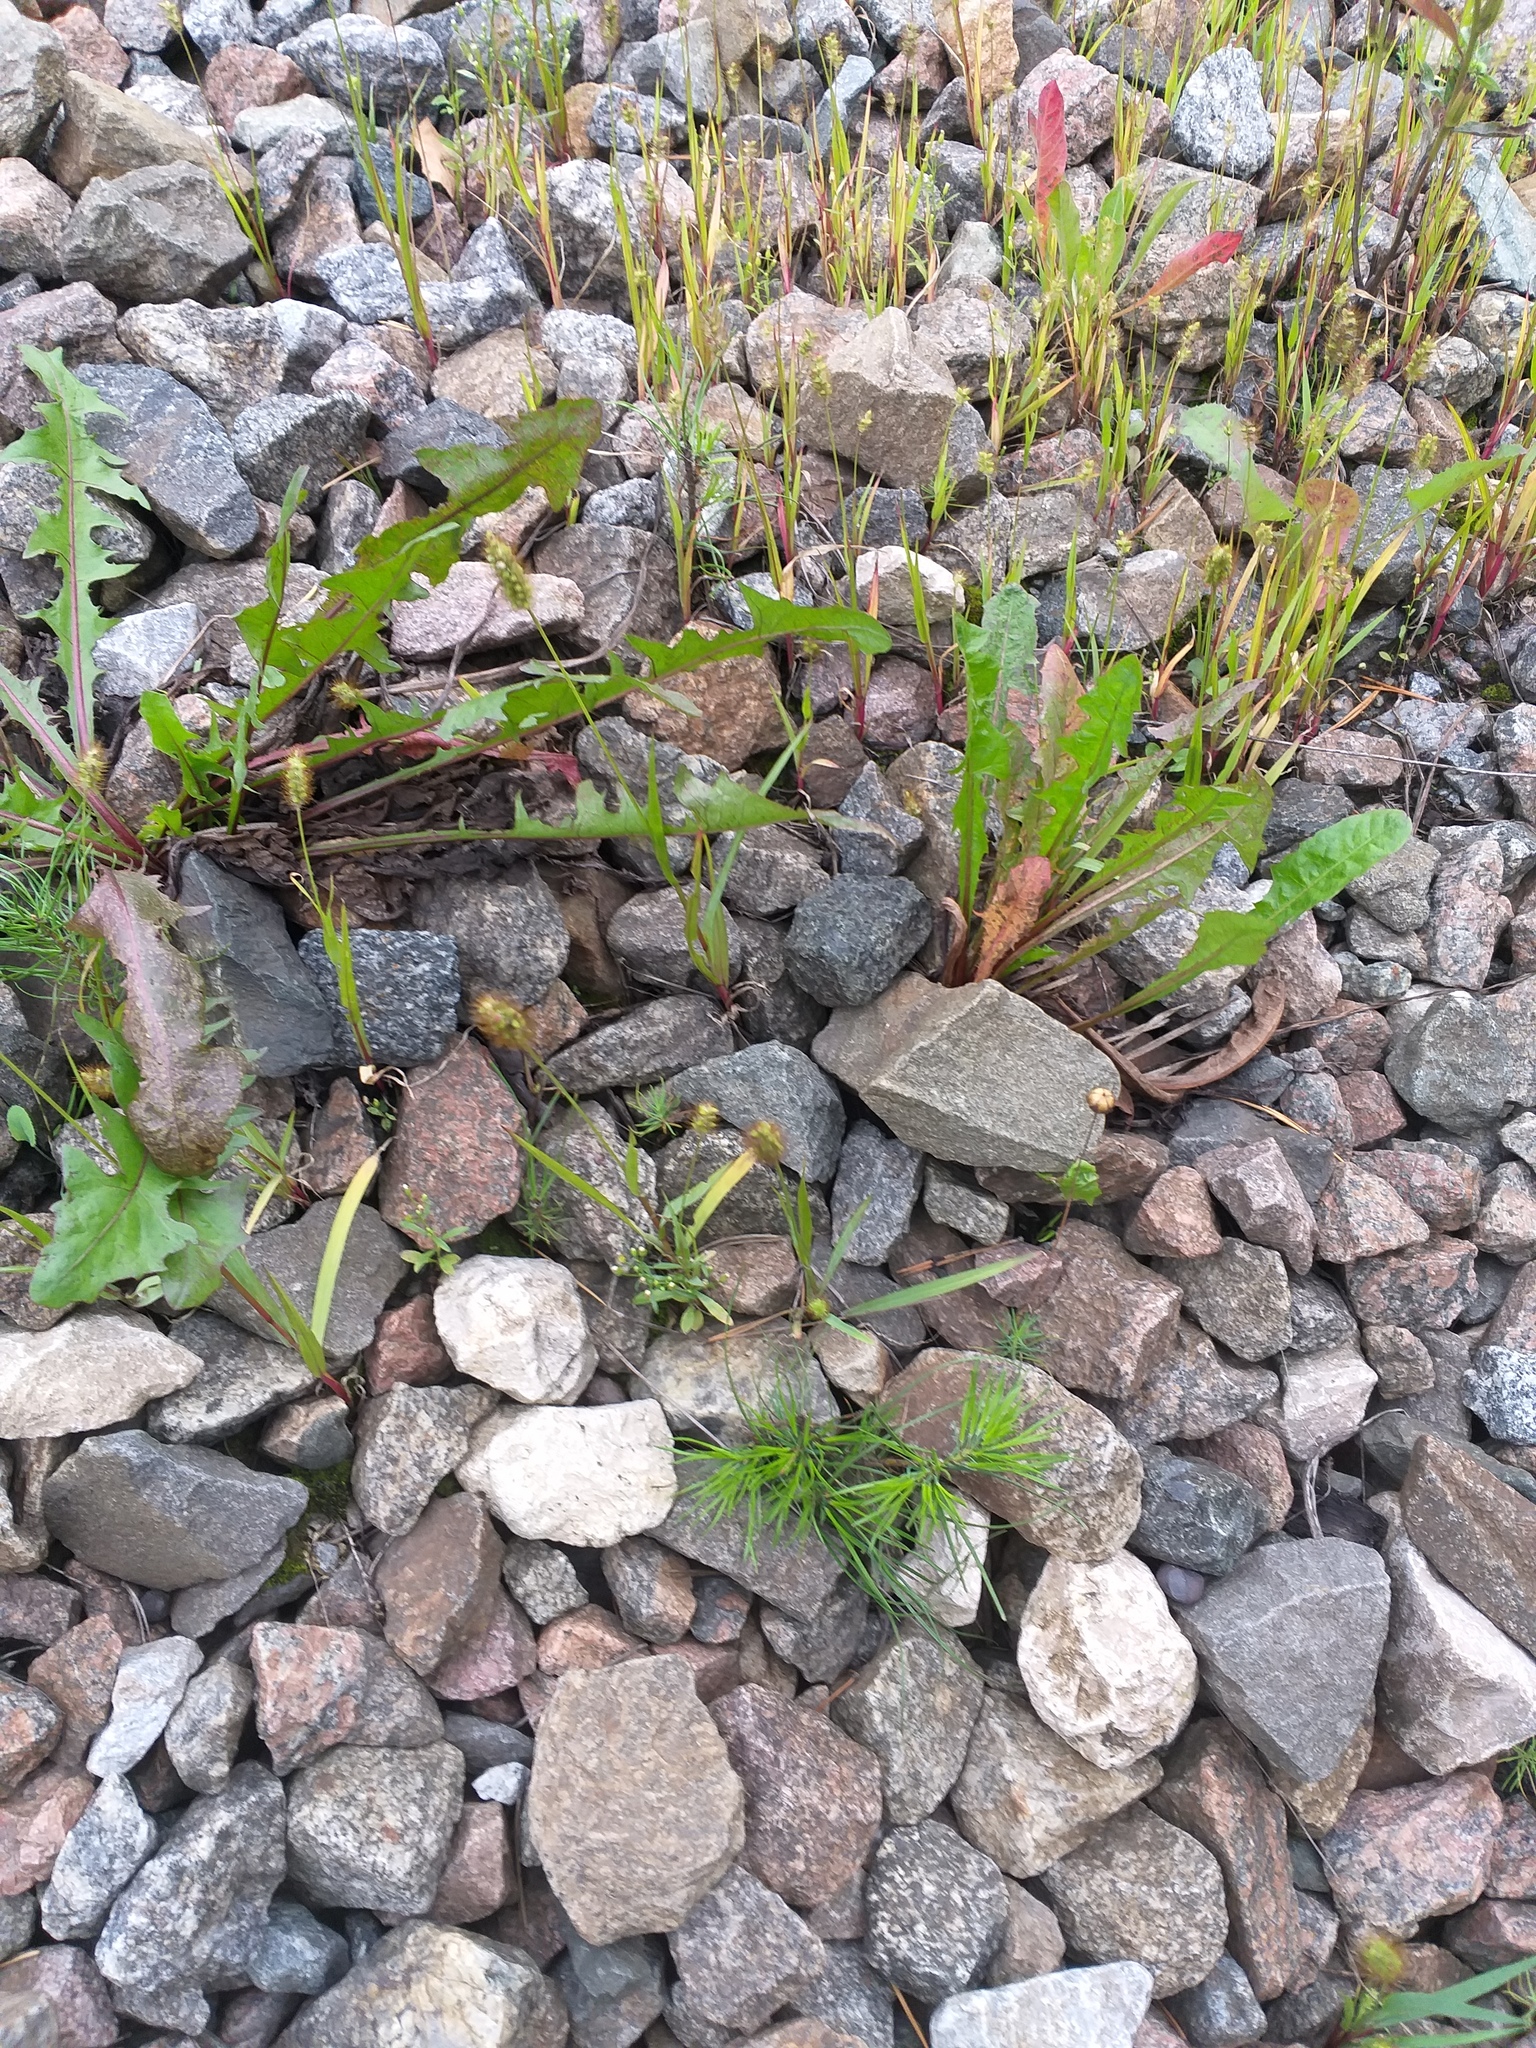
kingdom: Plantae
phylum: Tracheophyta
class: Liliopsida
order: Poales
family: Poaceae
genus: Setaria
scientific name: Setaria pumila
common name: Yellow bristle-grass
